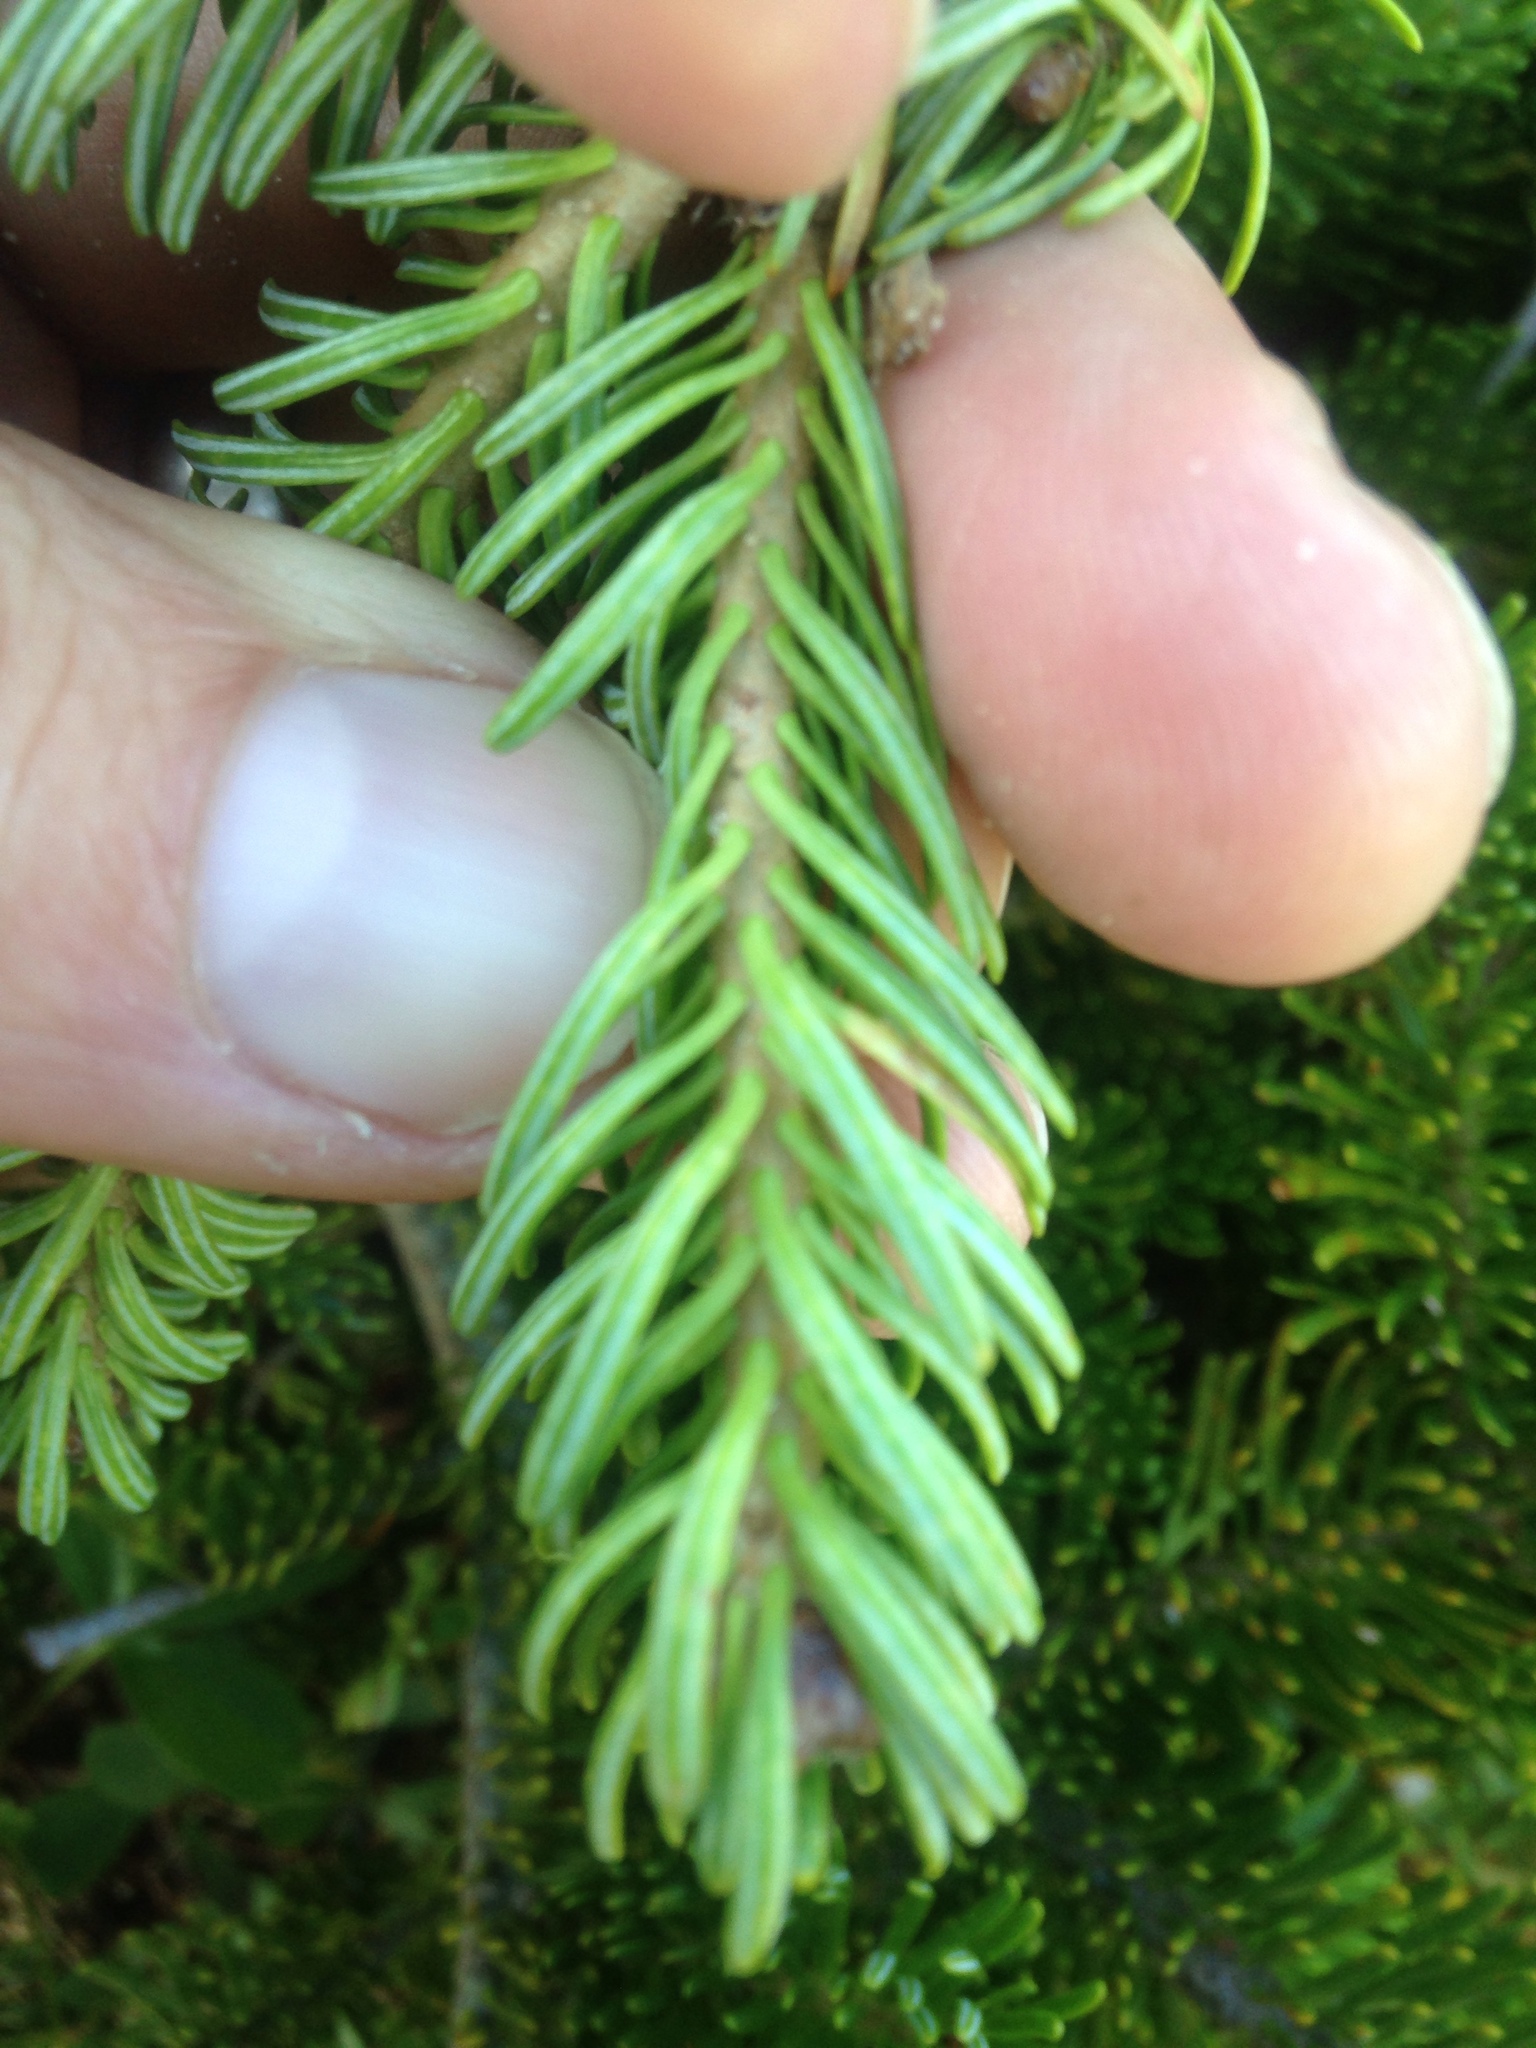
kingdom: Plantae
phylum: Tracheophyta
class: Pinopsida
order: Pinales
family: Pinaceae
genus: Abies
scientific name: Abies balsamea
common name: Balsam fir
